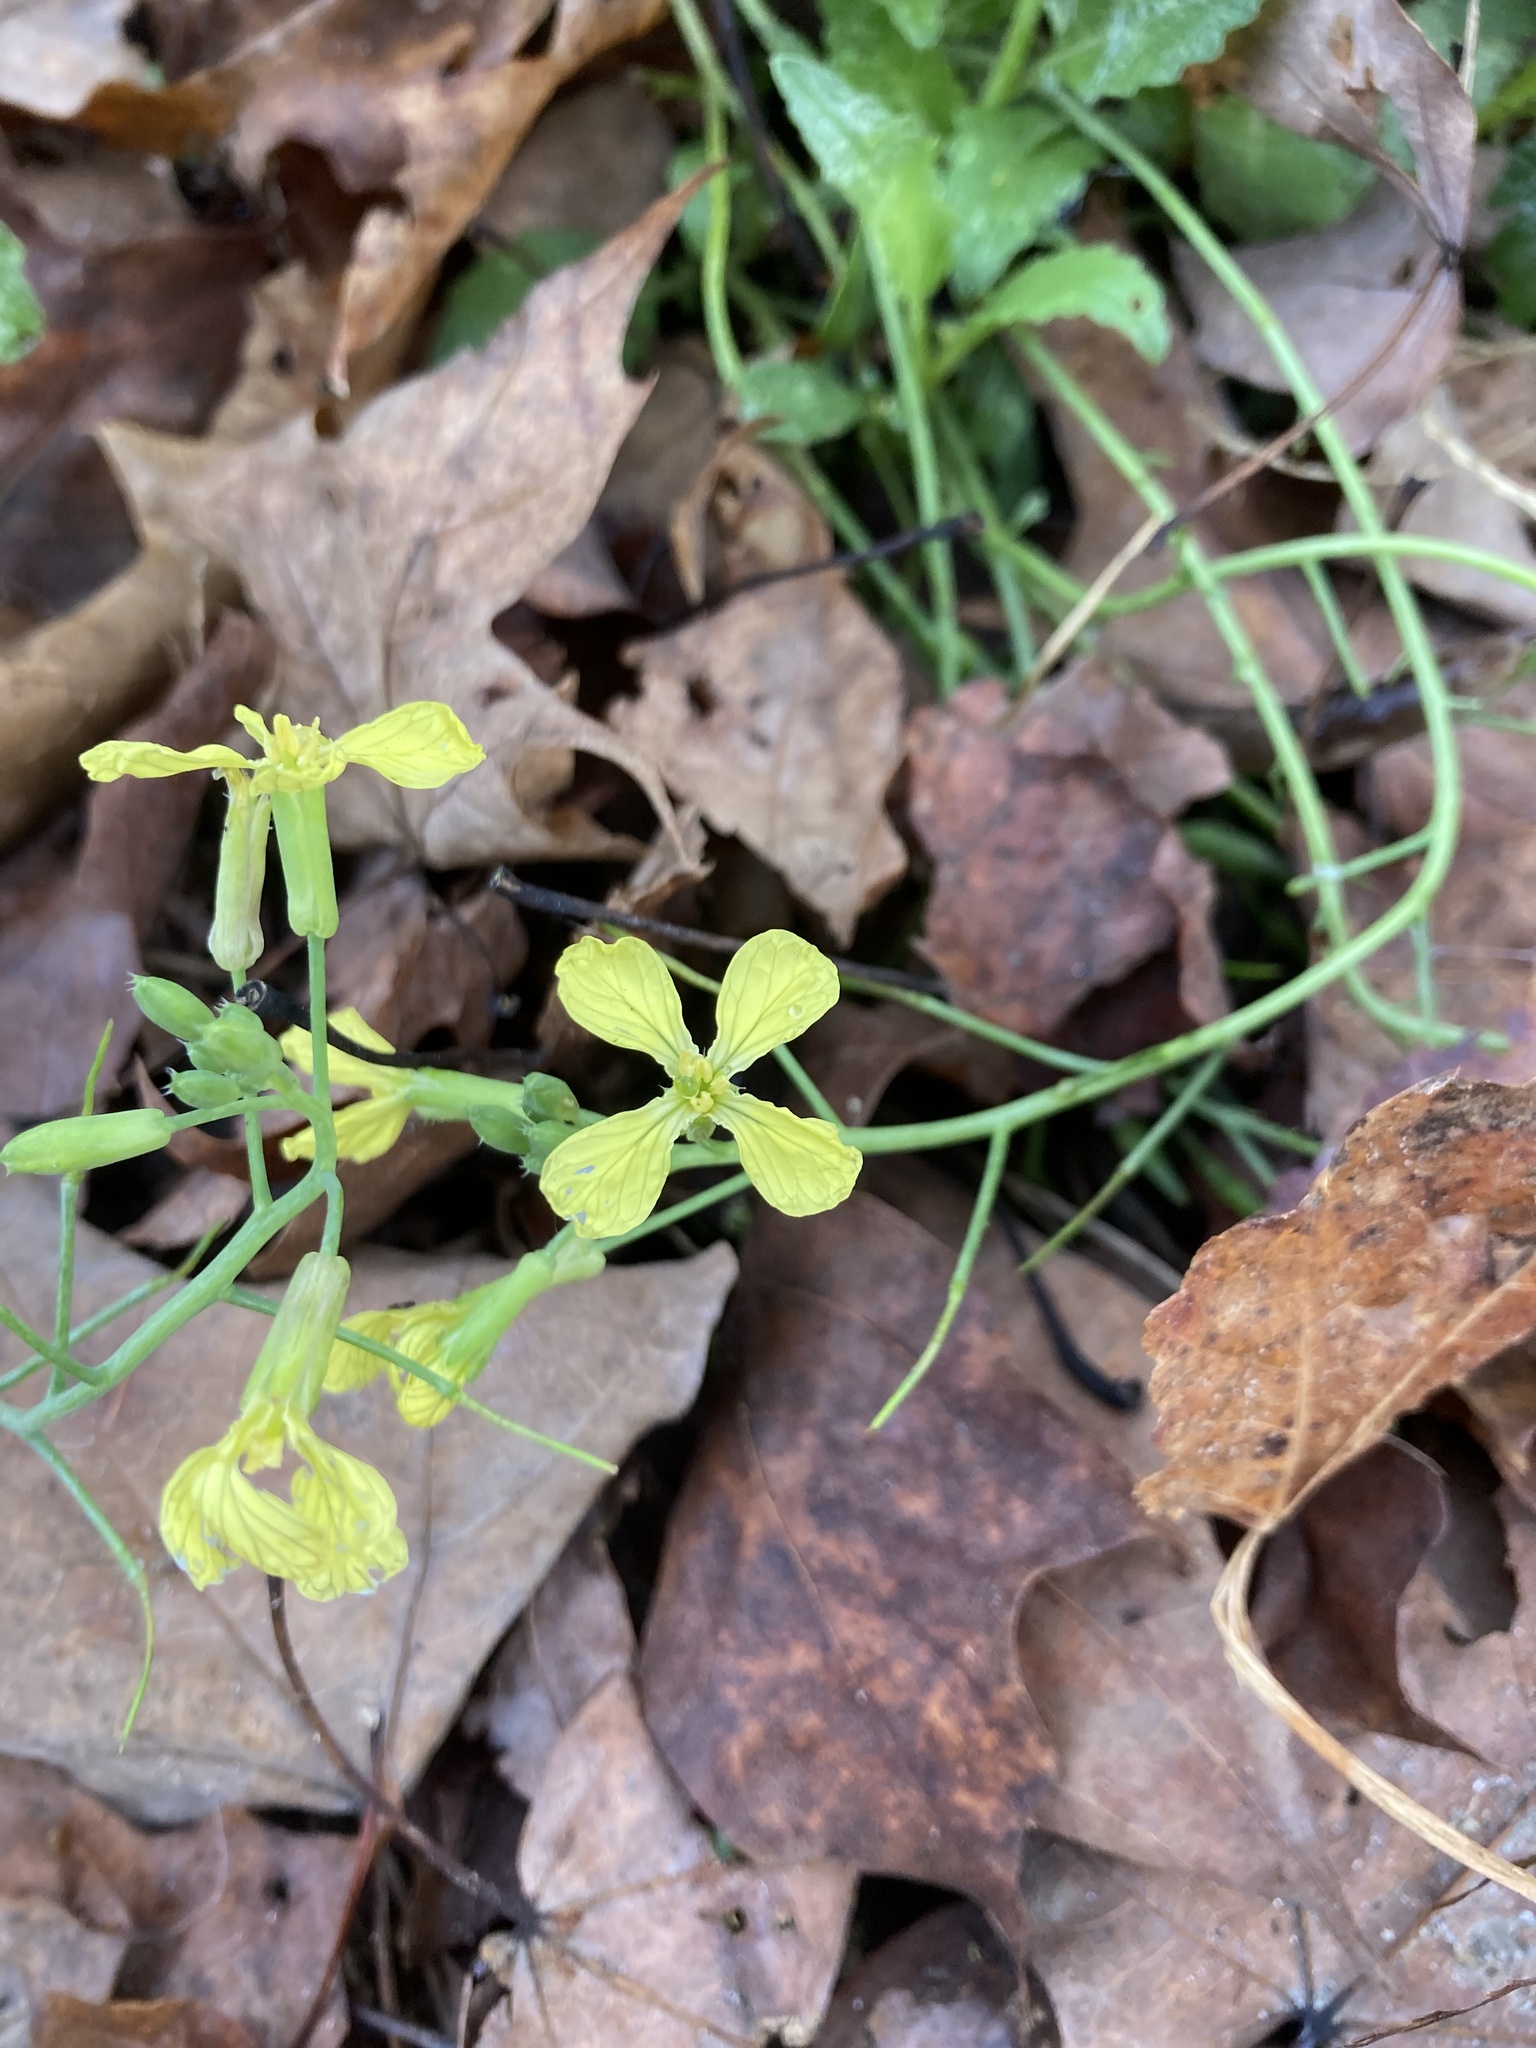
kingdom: Plantae
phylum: Tracheophyta
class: Magnoliopsida
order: Brassicales
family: Brassicaceae
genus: Raphanus
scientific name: Raphanus raphanistrum
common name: Wild radish
